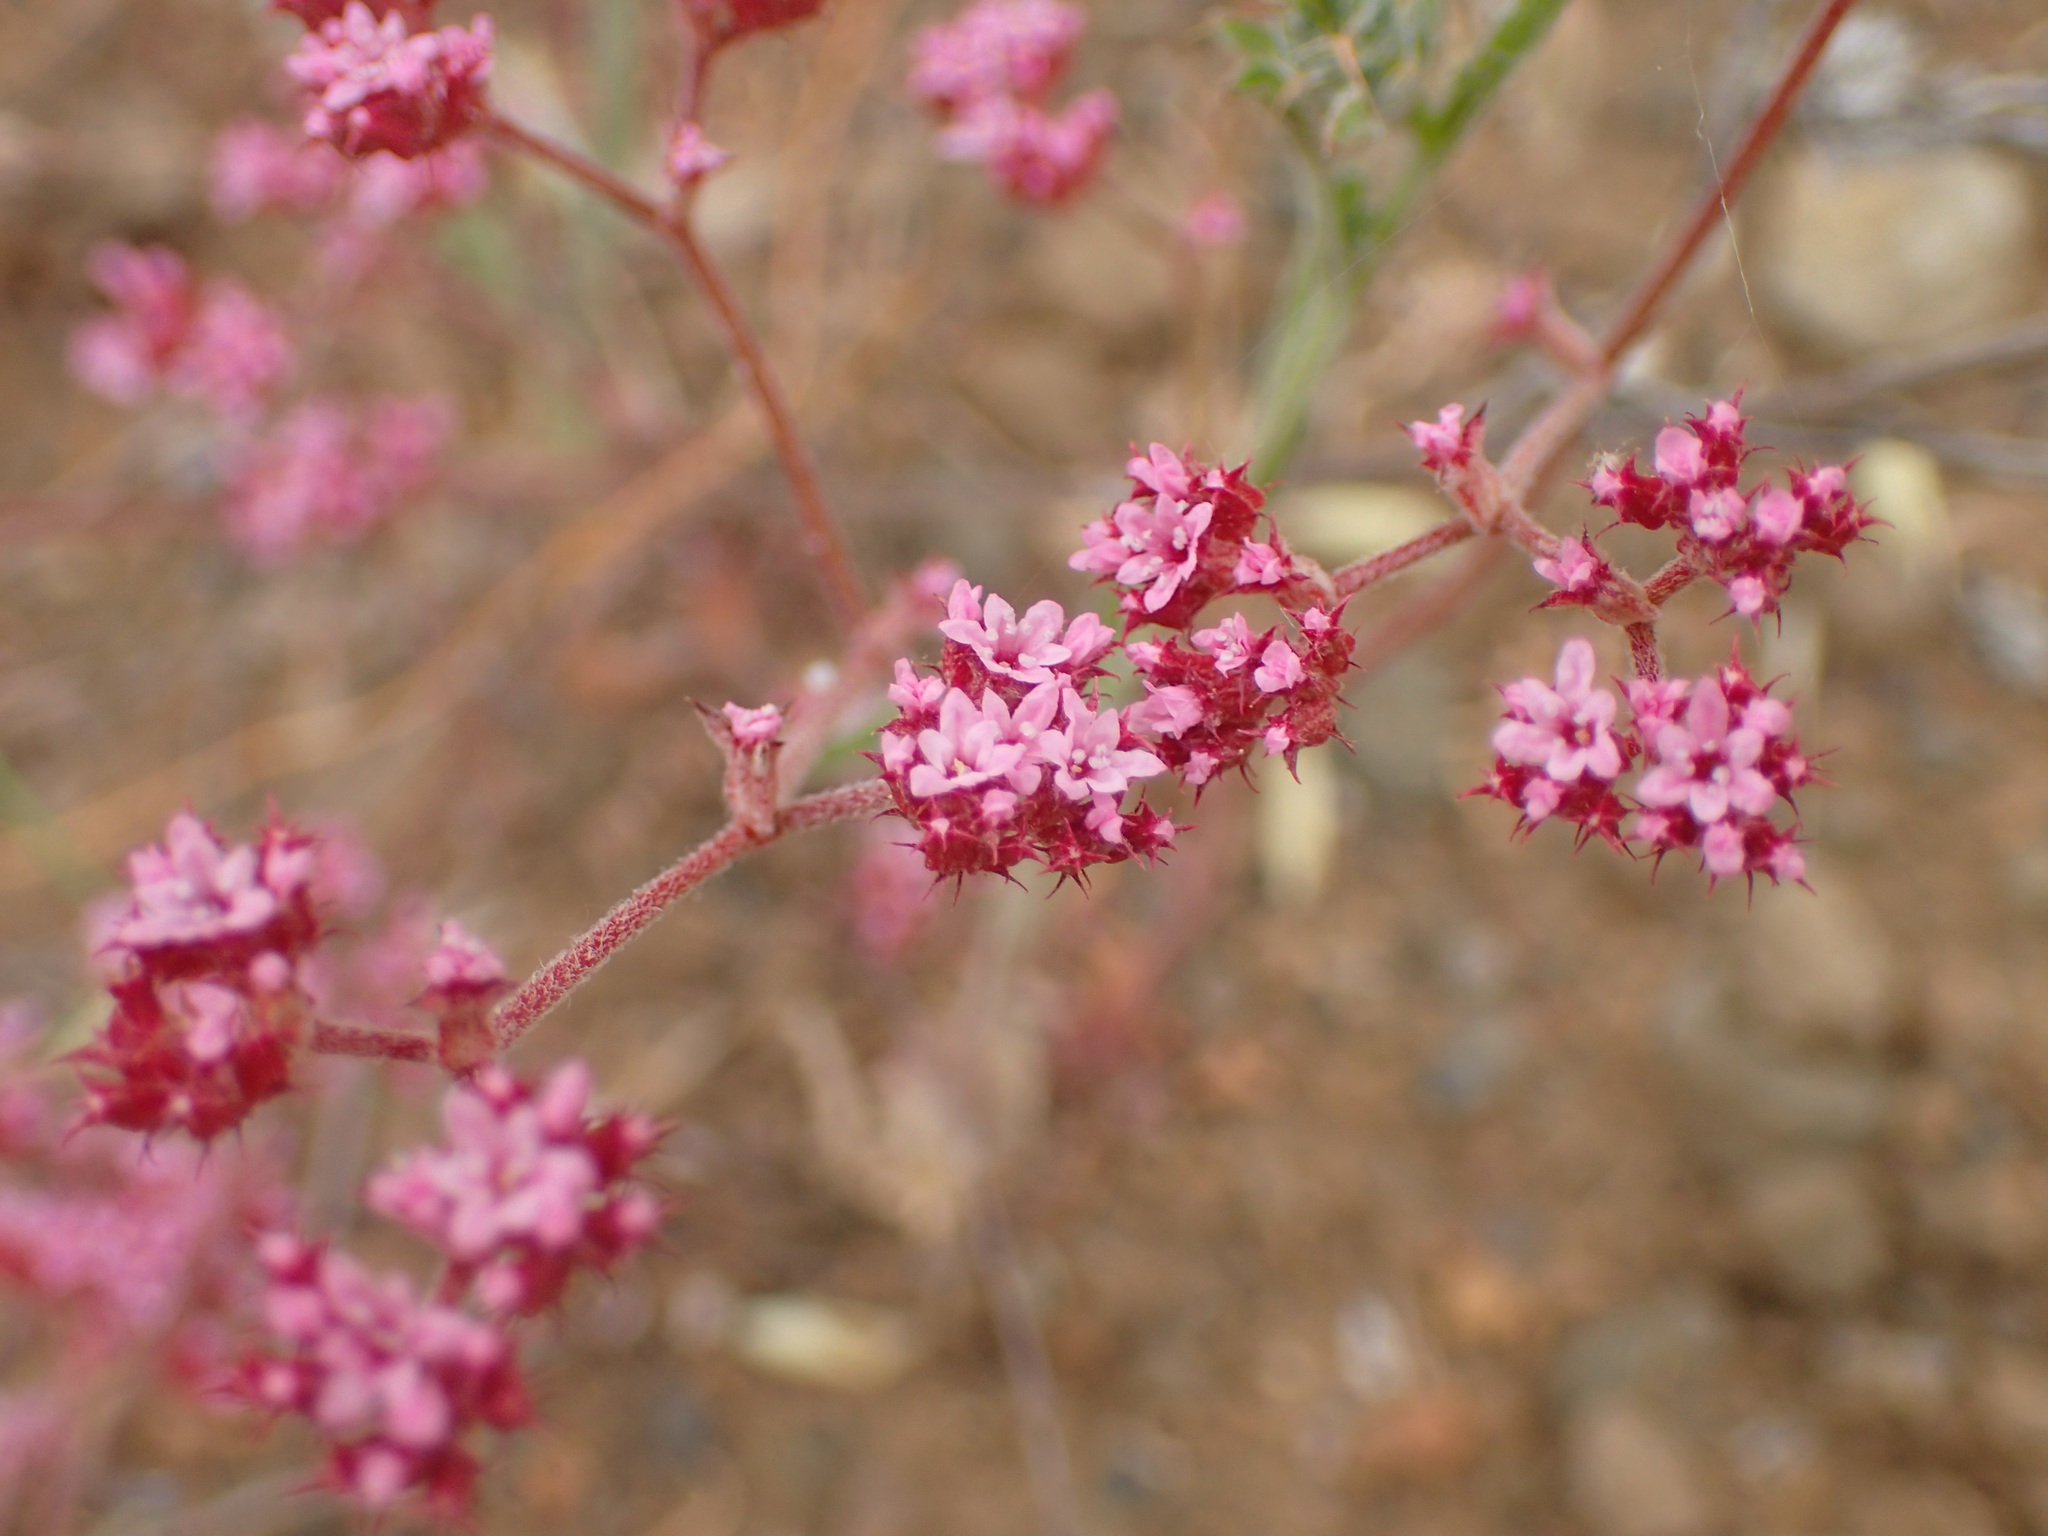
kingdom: Plantae
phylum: Tracheophyta
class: Magnoliopsida
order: Caryophyllales
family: Polygonaceae
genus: Chorizanthe
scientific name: Chorizanthe staticoides
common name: Turkish rugging
